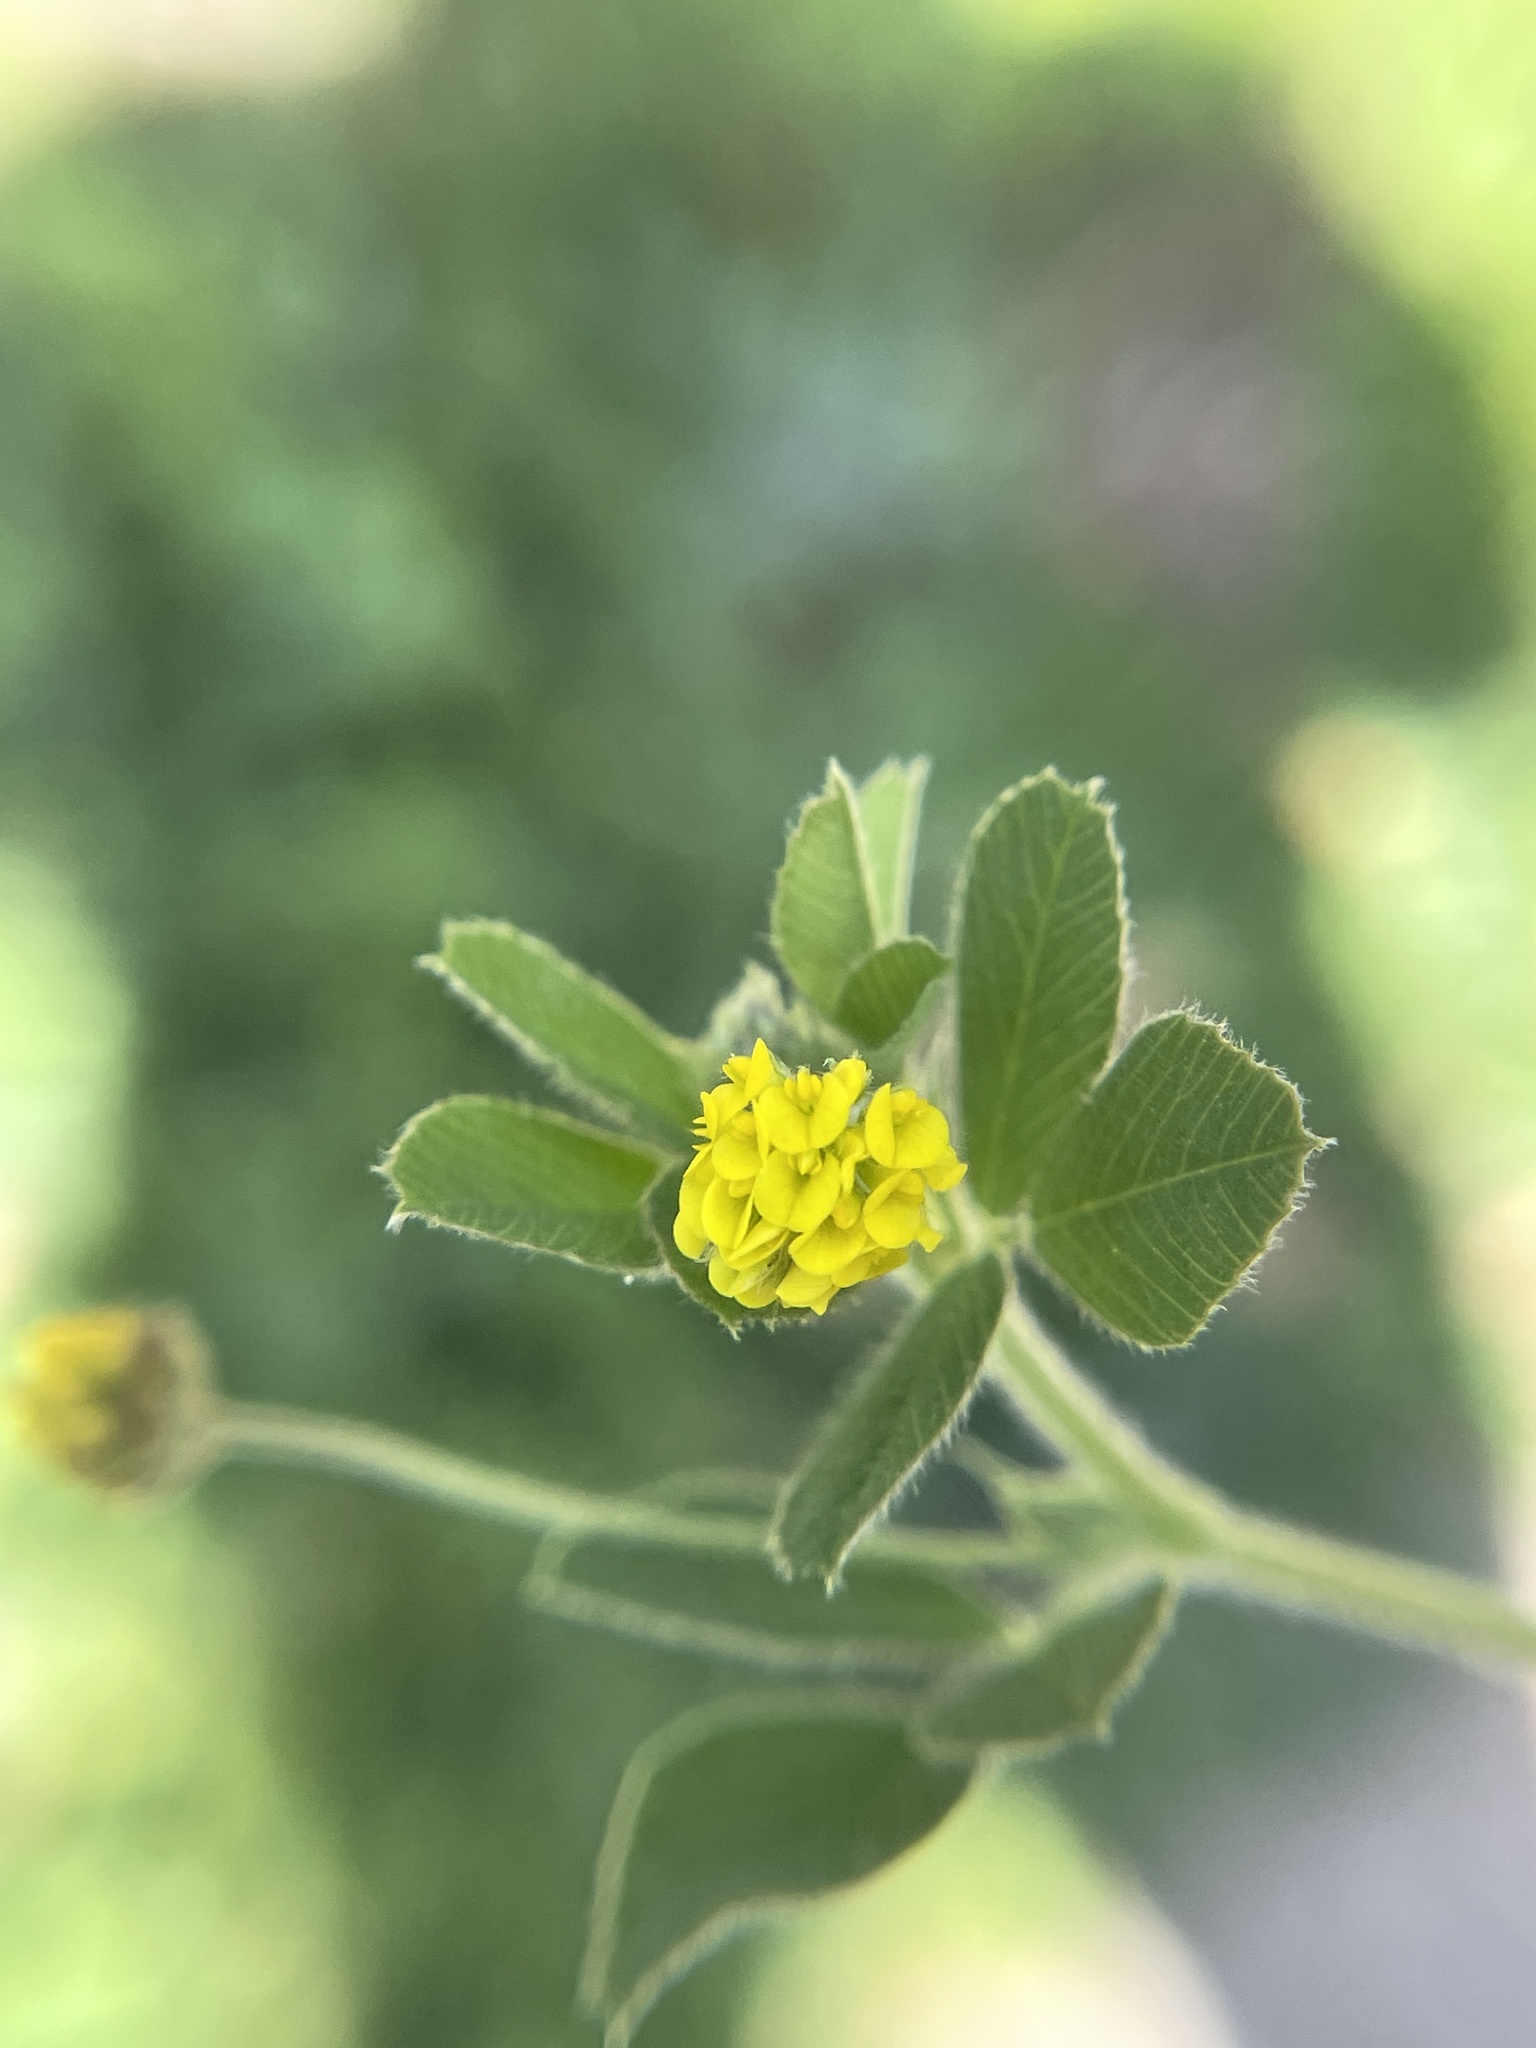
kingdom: Plantae
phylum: Tracheophyta
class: Magnoliopsida
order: Fabales
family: Fabaceae
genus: Medicago
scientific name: Medicago lupulina
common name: Black medick
